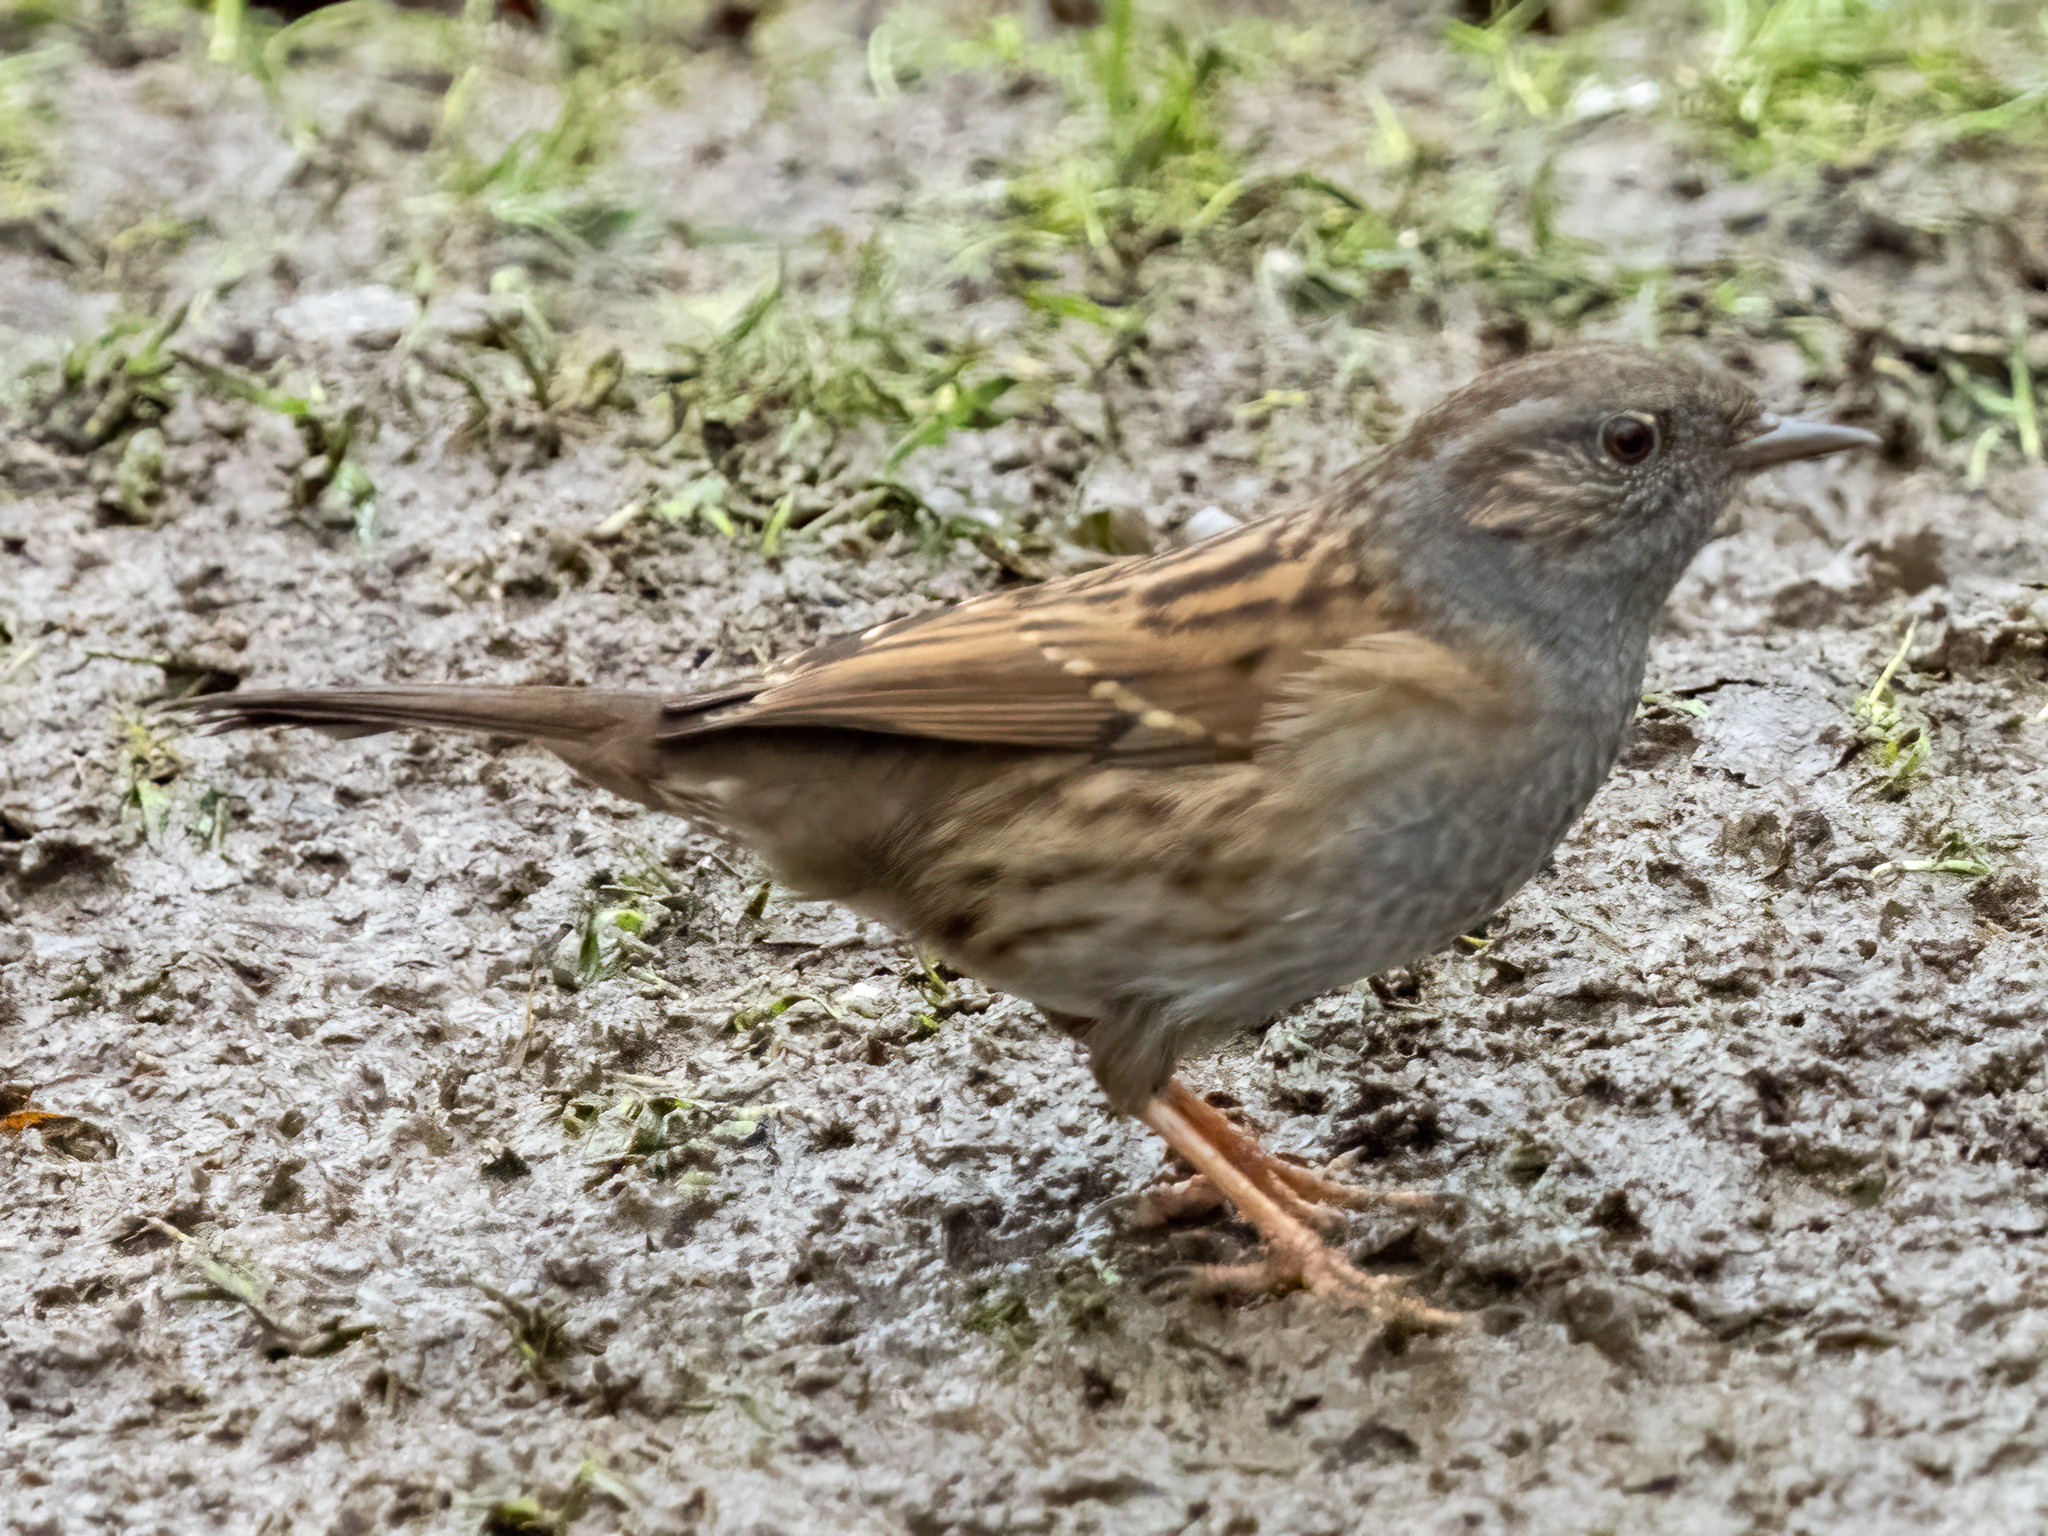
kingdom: Animalia
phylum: Chordata
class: Aves
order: Passeriformes
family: Prunellidae
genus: Prunella
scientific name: Prunella modularis
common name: Dunnock
